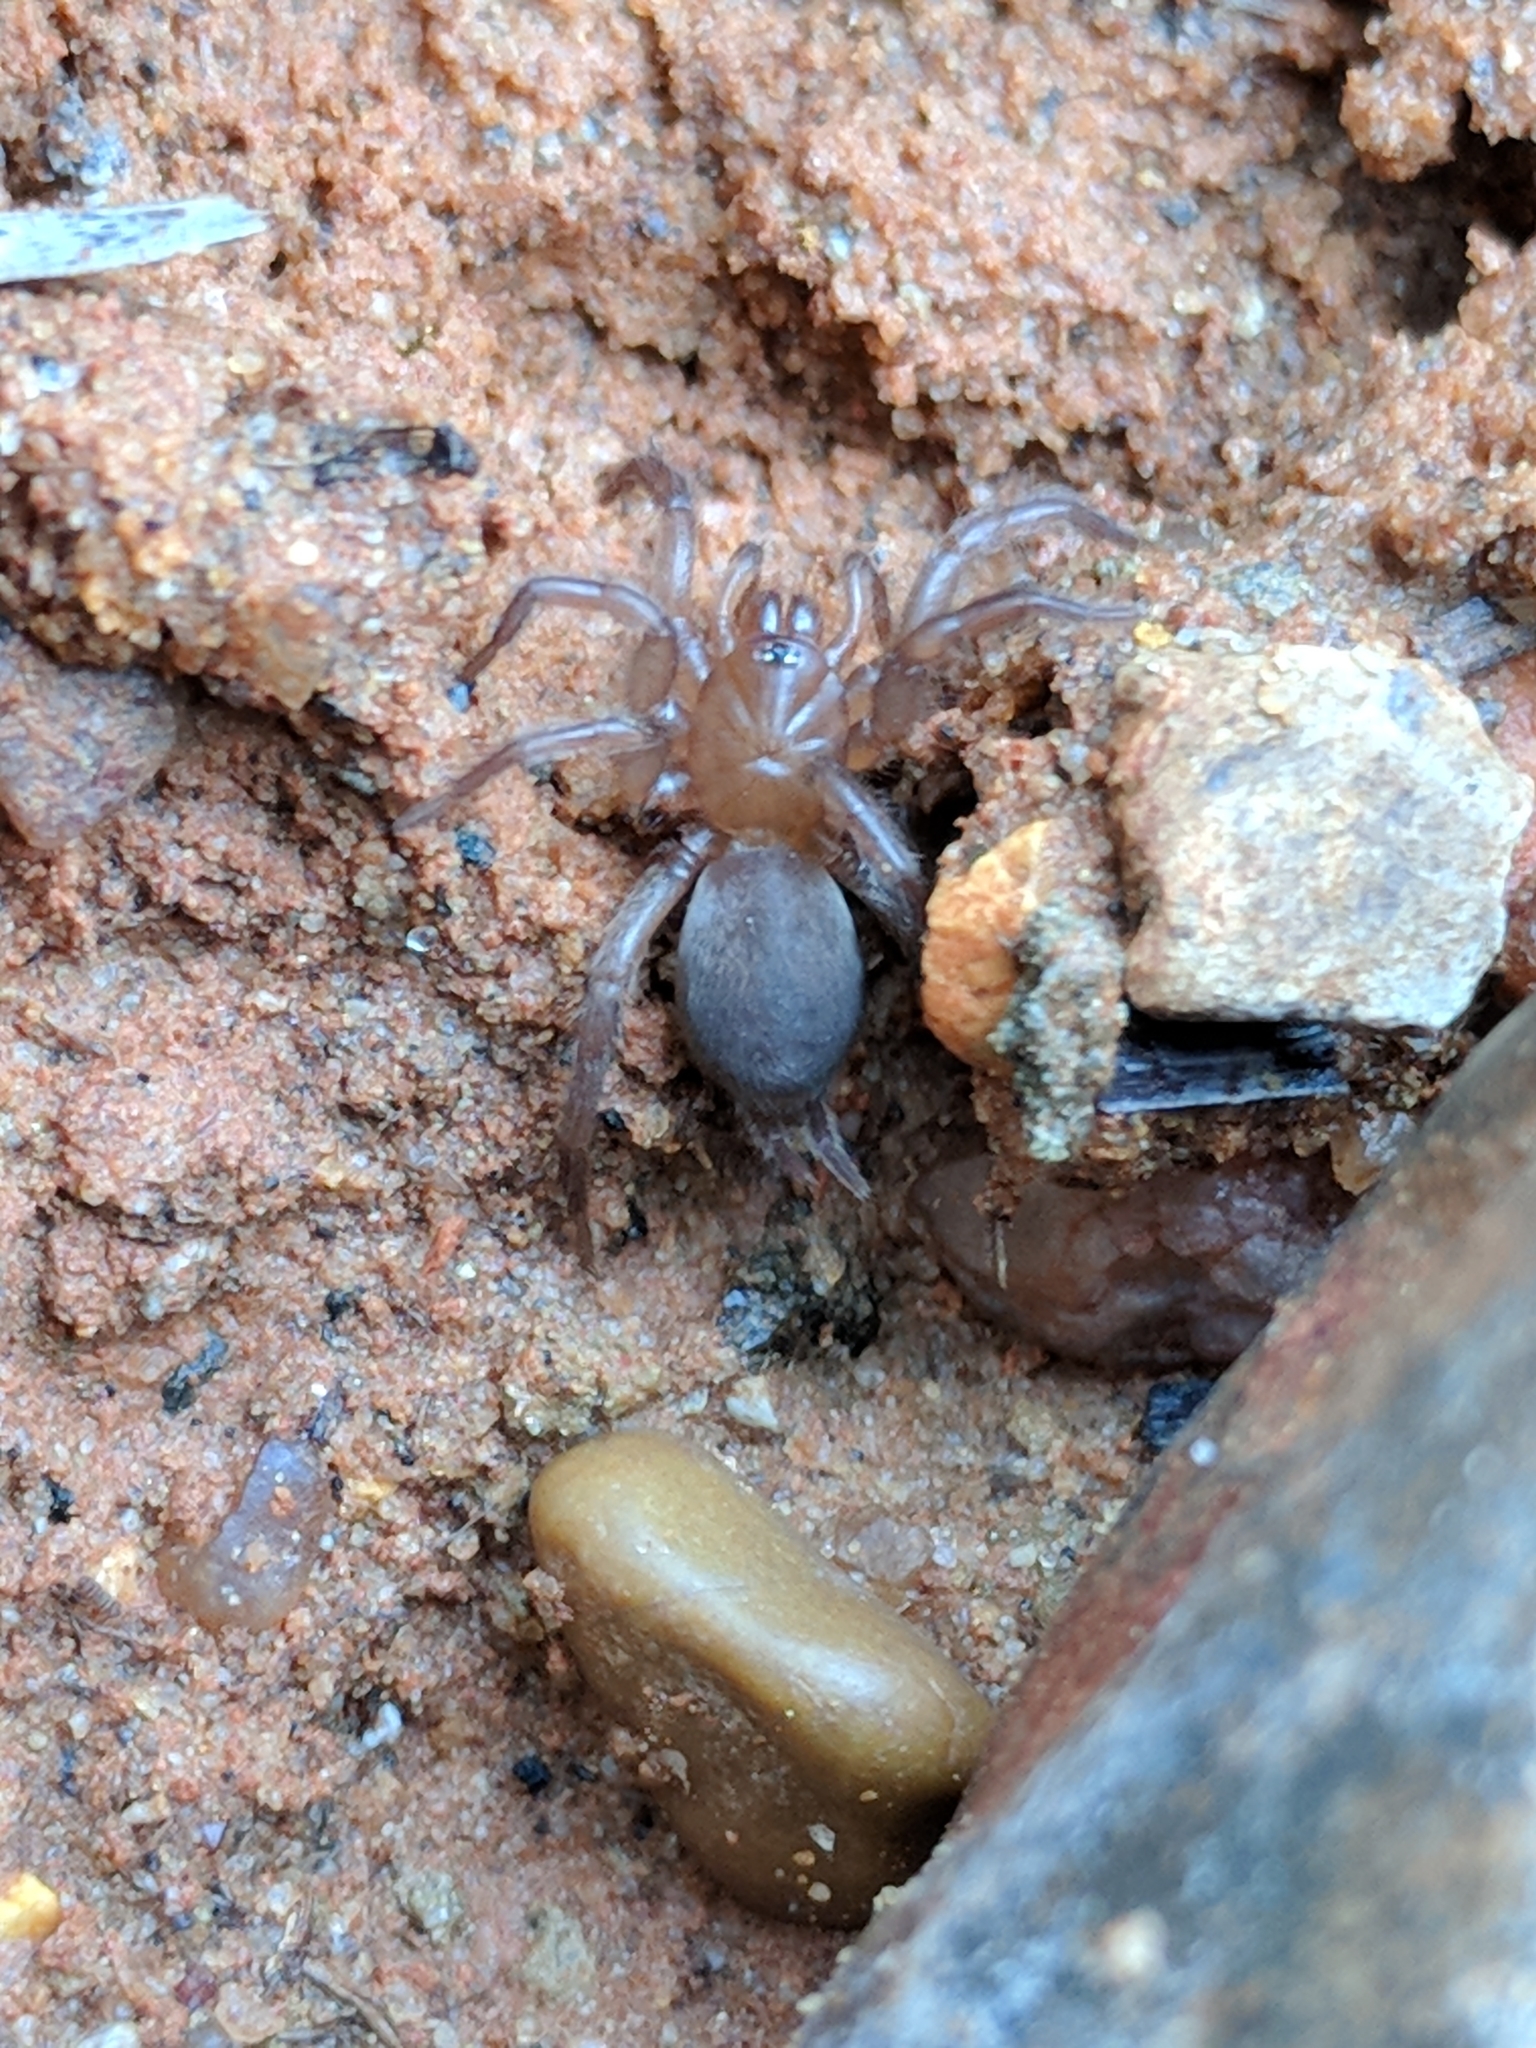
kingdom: Animalia
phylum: Arthropoda
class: Arachnida
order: Araneae
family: Euagridae
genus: Euagrus
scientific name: Euagrus chisoseus
